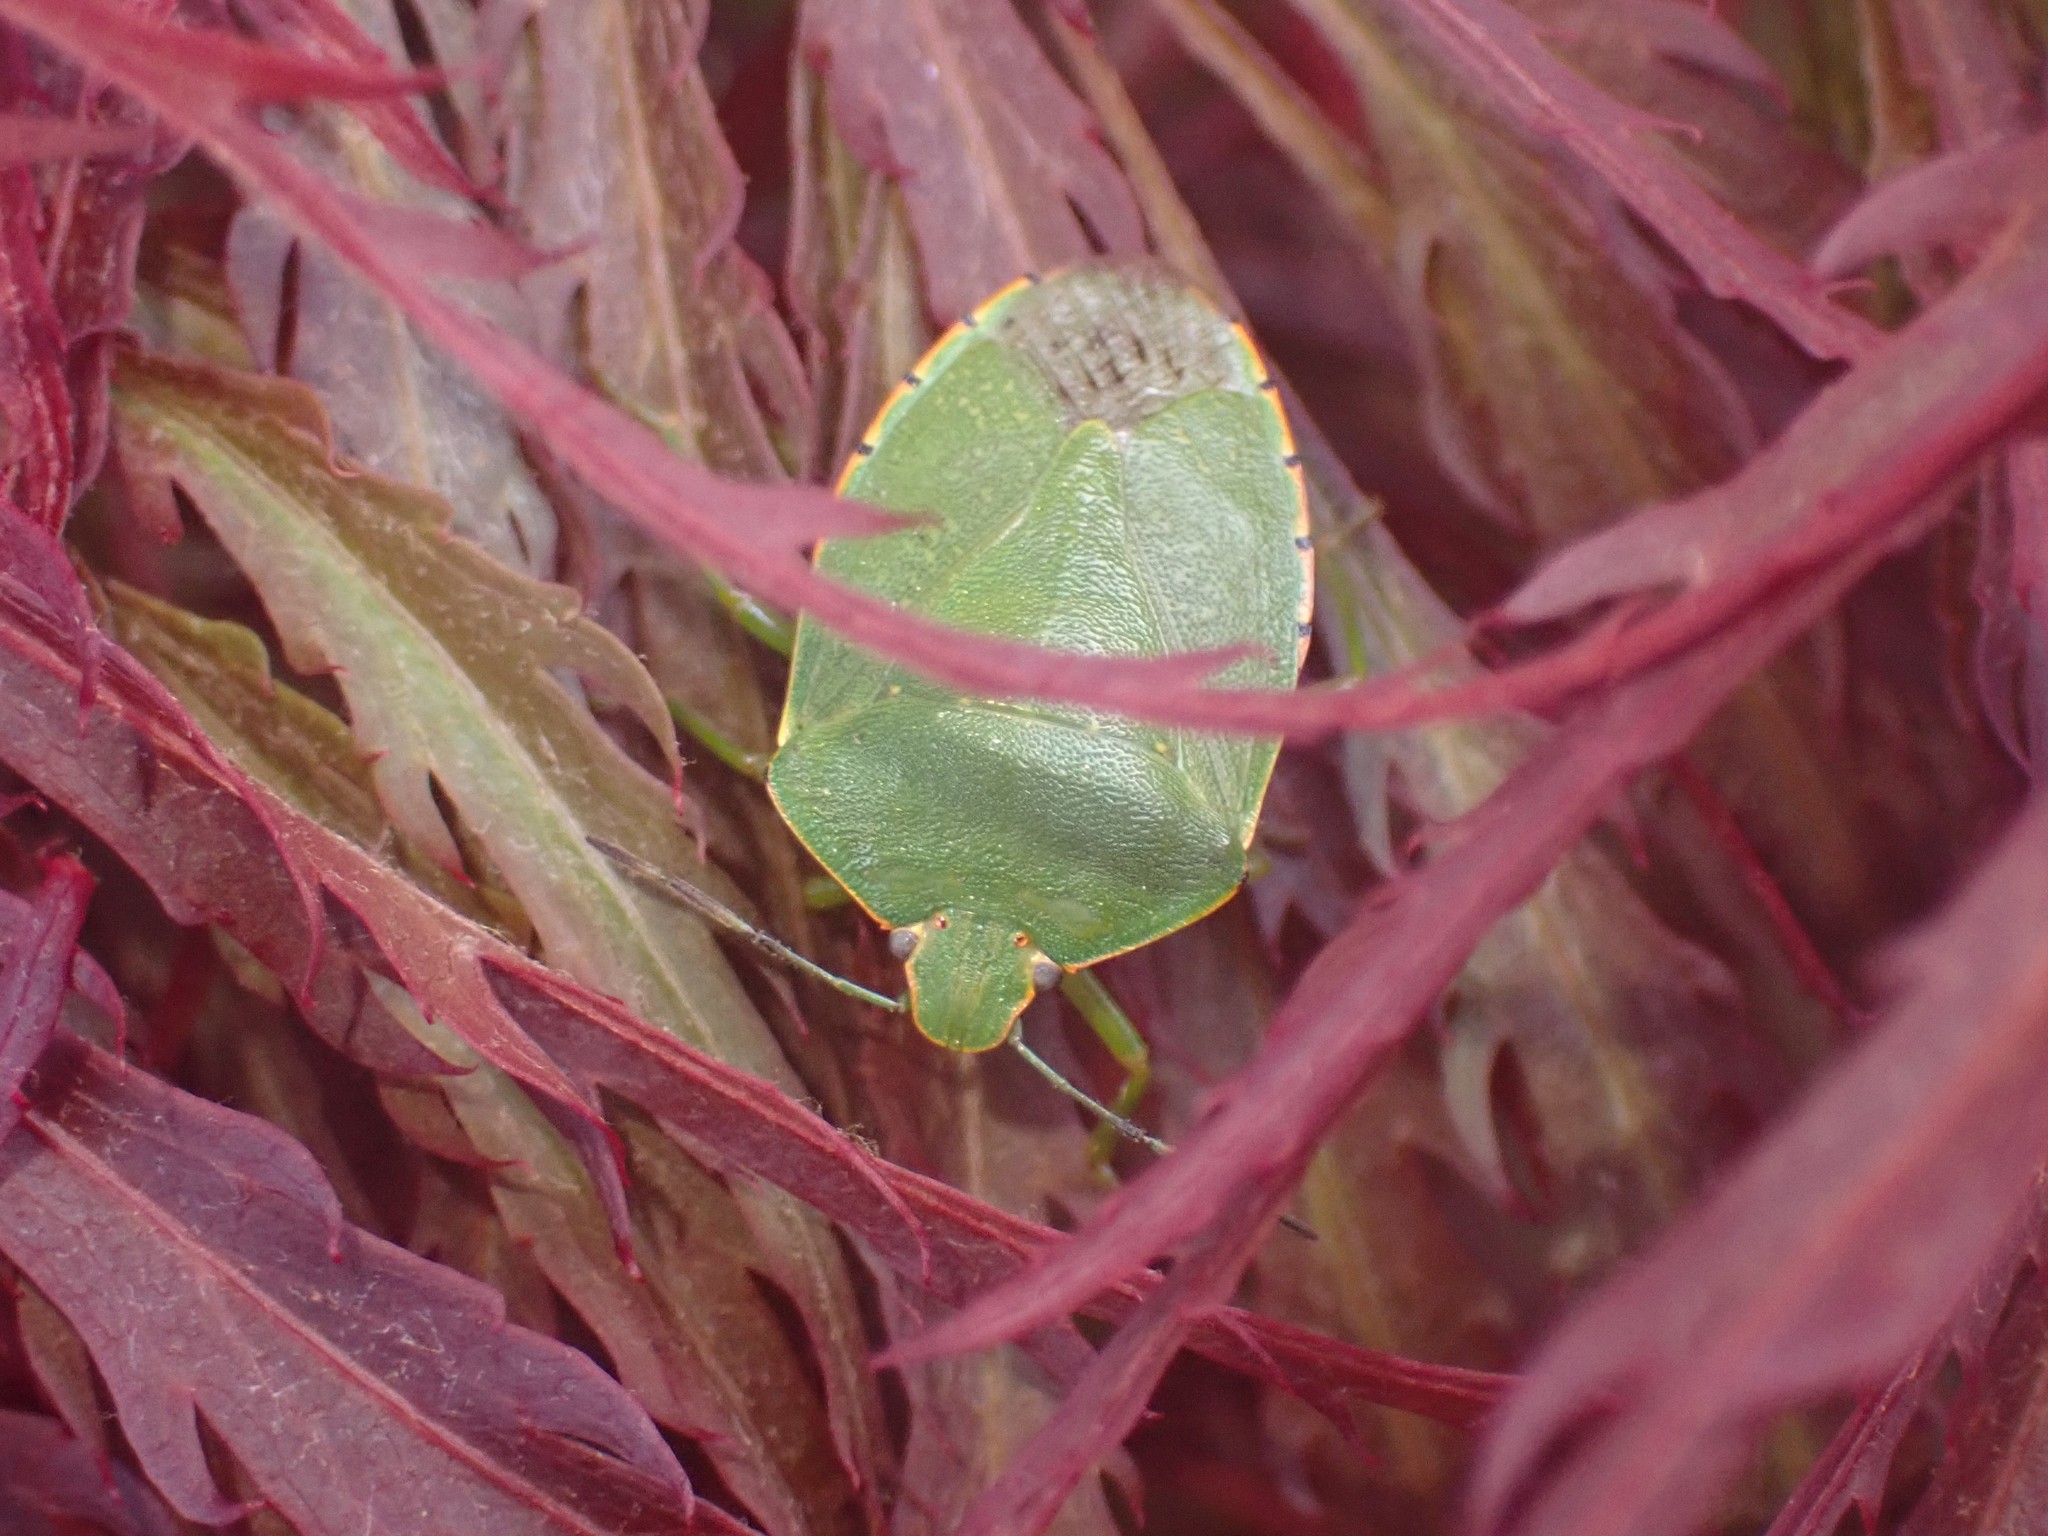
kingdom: Animalia
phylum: Arthropoda
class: Insecta
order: Hemiptera
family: Pentatomidae
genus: Chinavia
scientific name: Chinavia hilaris
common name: Green stink bug
